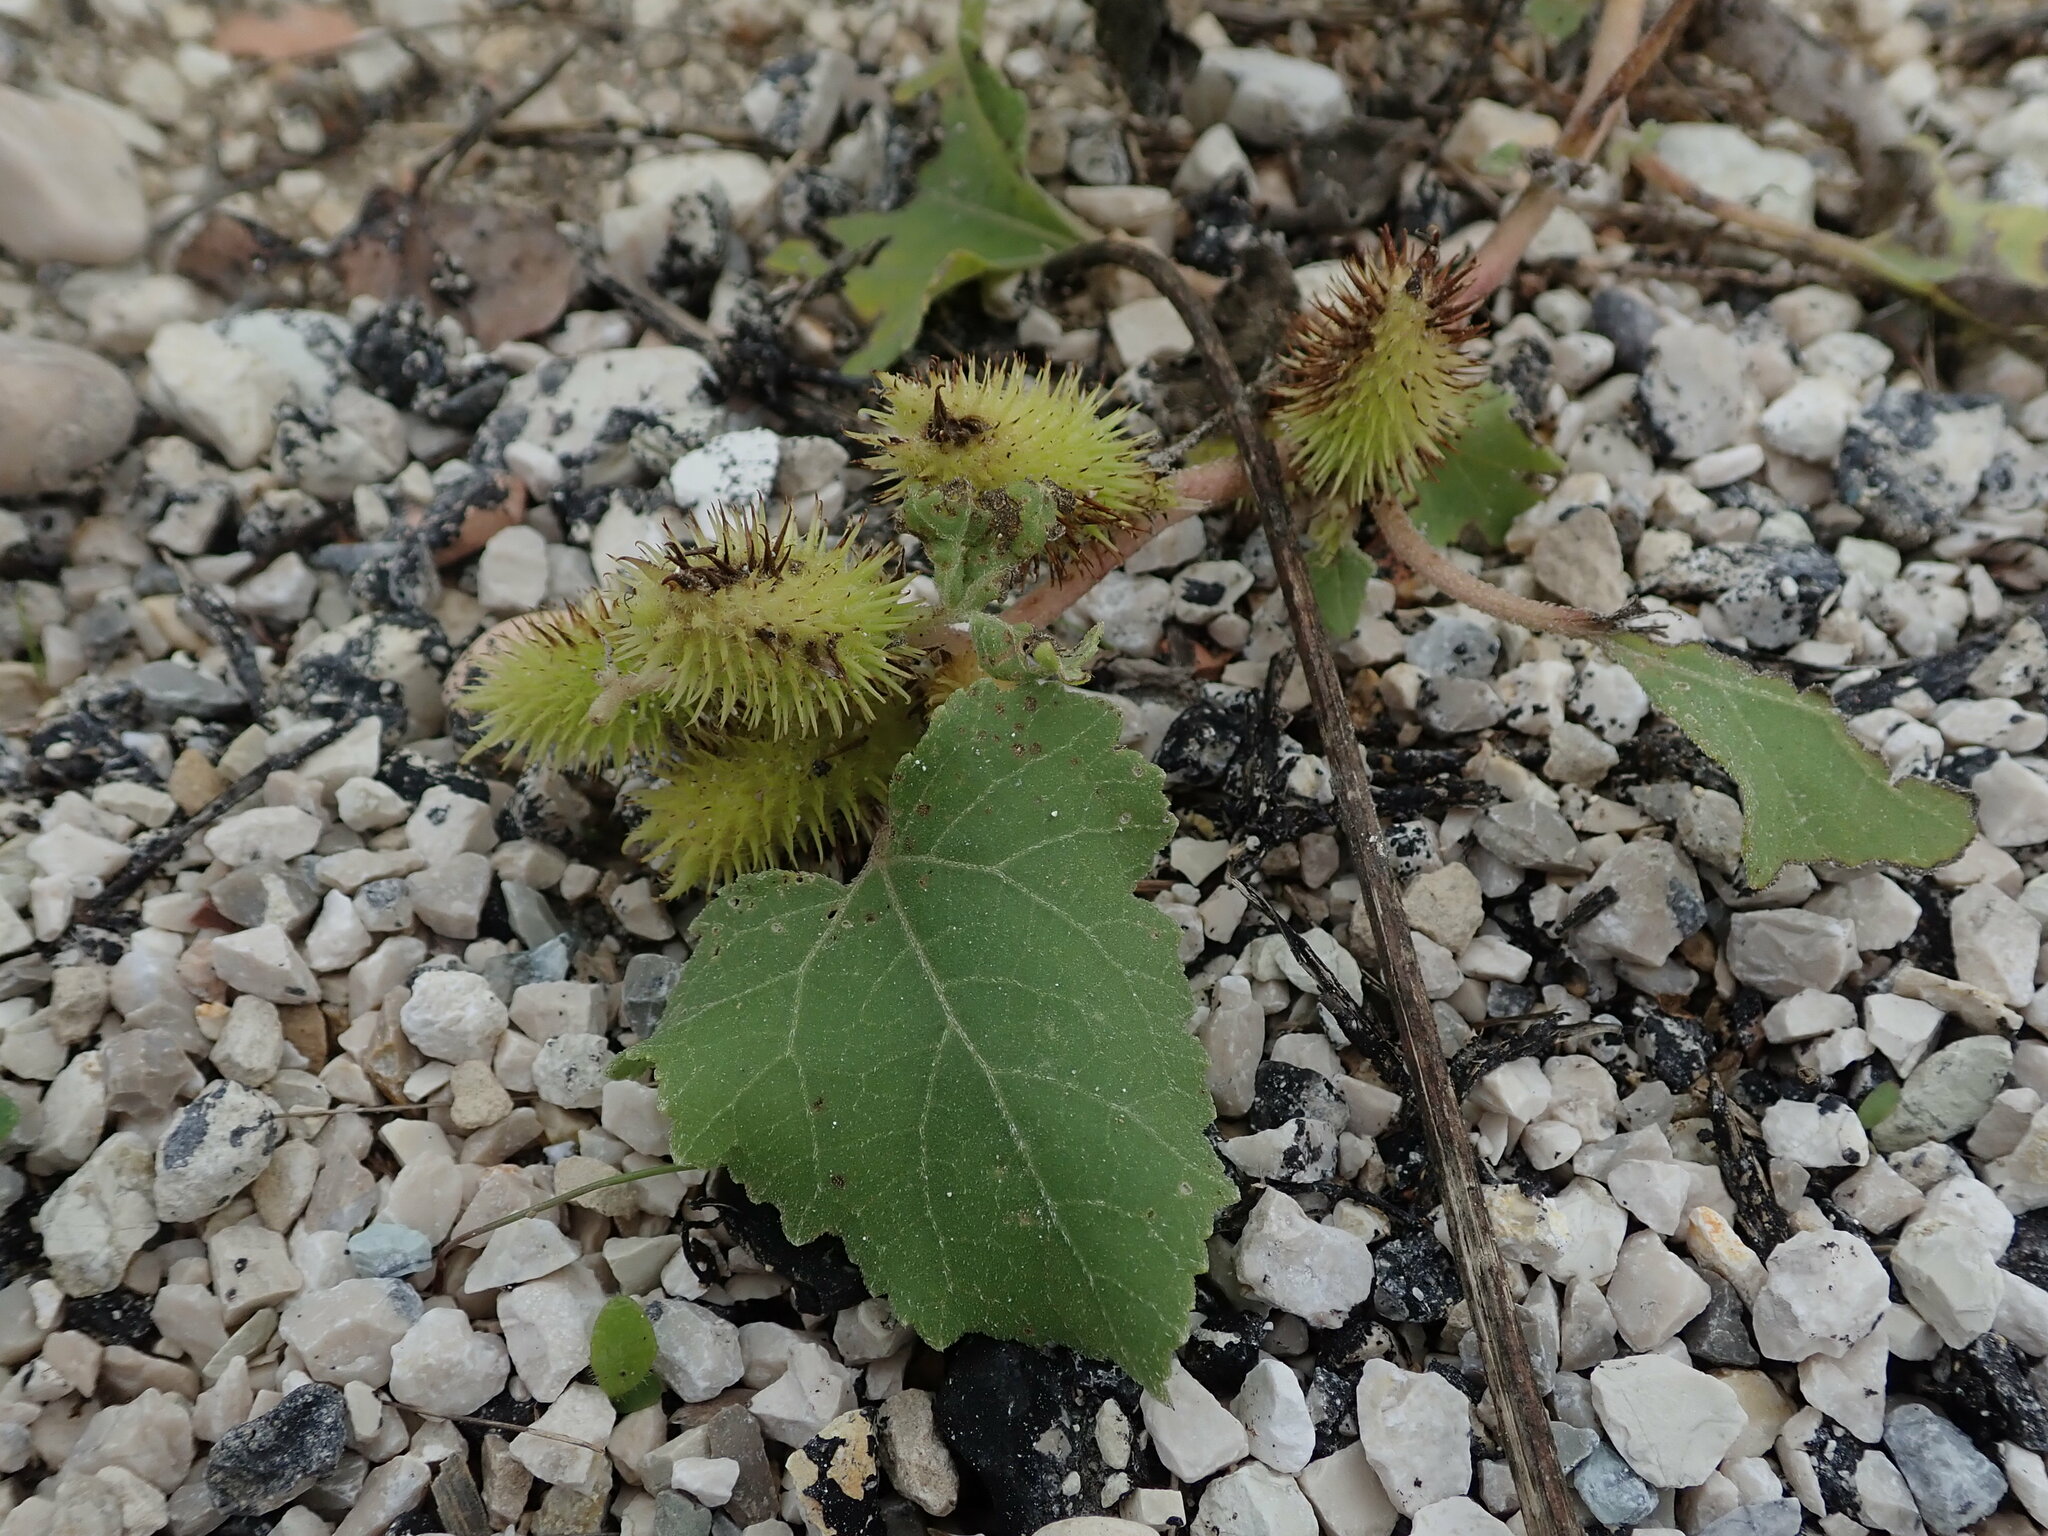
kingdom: Plantae
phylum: Tracheophyta
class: Magnoliopsida
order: Asterales
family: Asteraceae
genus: Xanthium
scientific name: Xanthium orientale
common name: Californian burr
